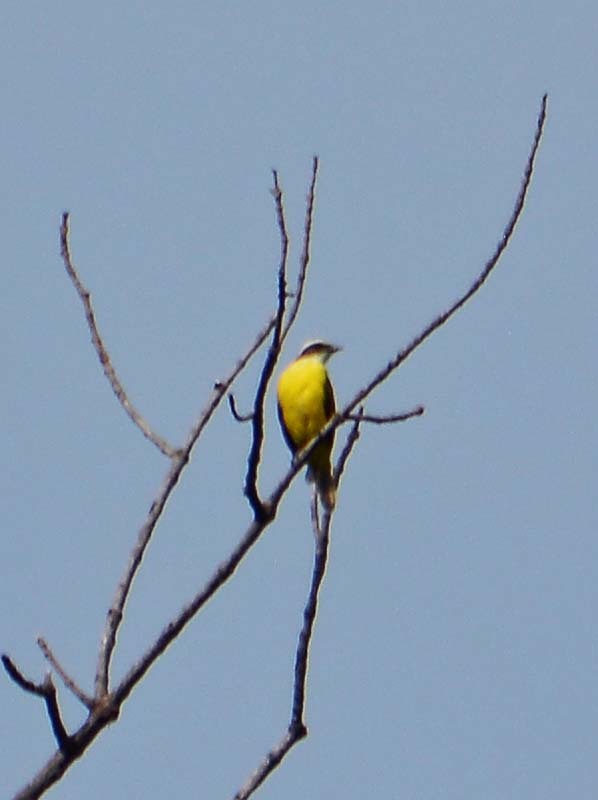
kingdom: Animalia
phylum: Chordata
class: Aves
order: Passeriformes
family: Tyrannidae
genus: Myiozetetes
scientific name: Myiozetetes similis
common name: Social flycatcher
